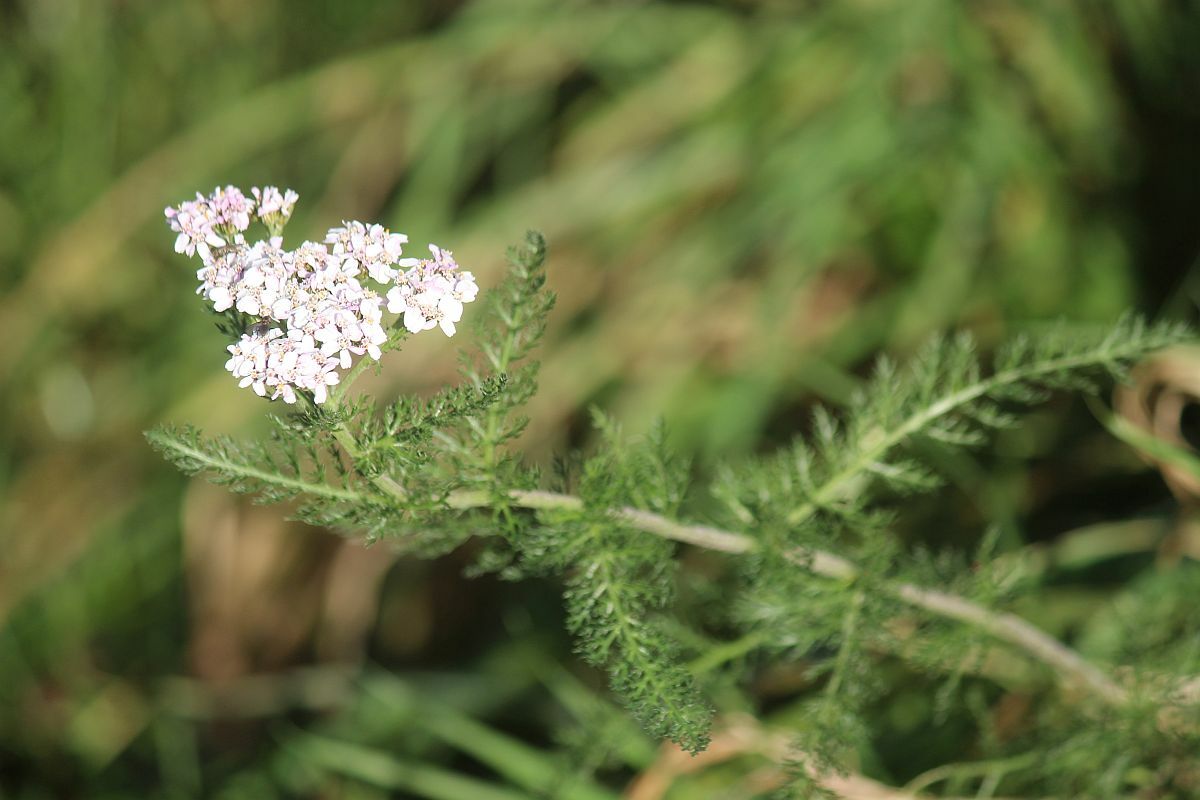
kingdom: Plantae
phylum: Tracheophyta
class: Magnoliopsida
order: Asterales
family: Asteraceae
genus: Achillea
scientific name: Achillea millefolium
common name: Yarrow
